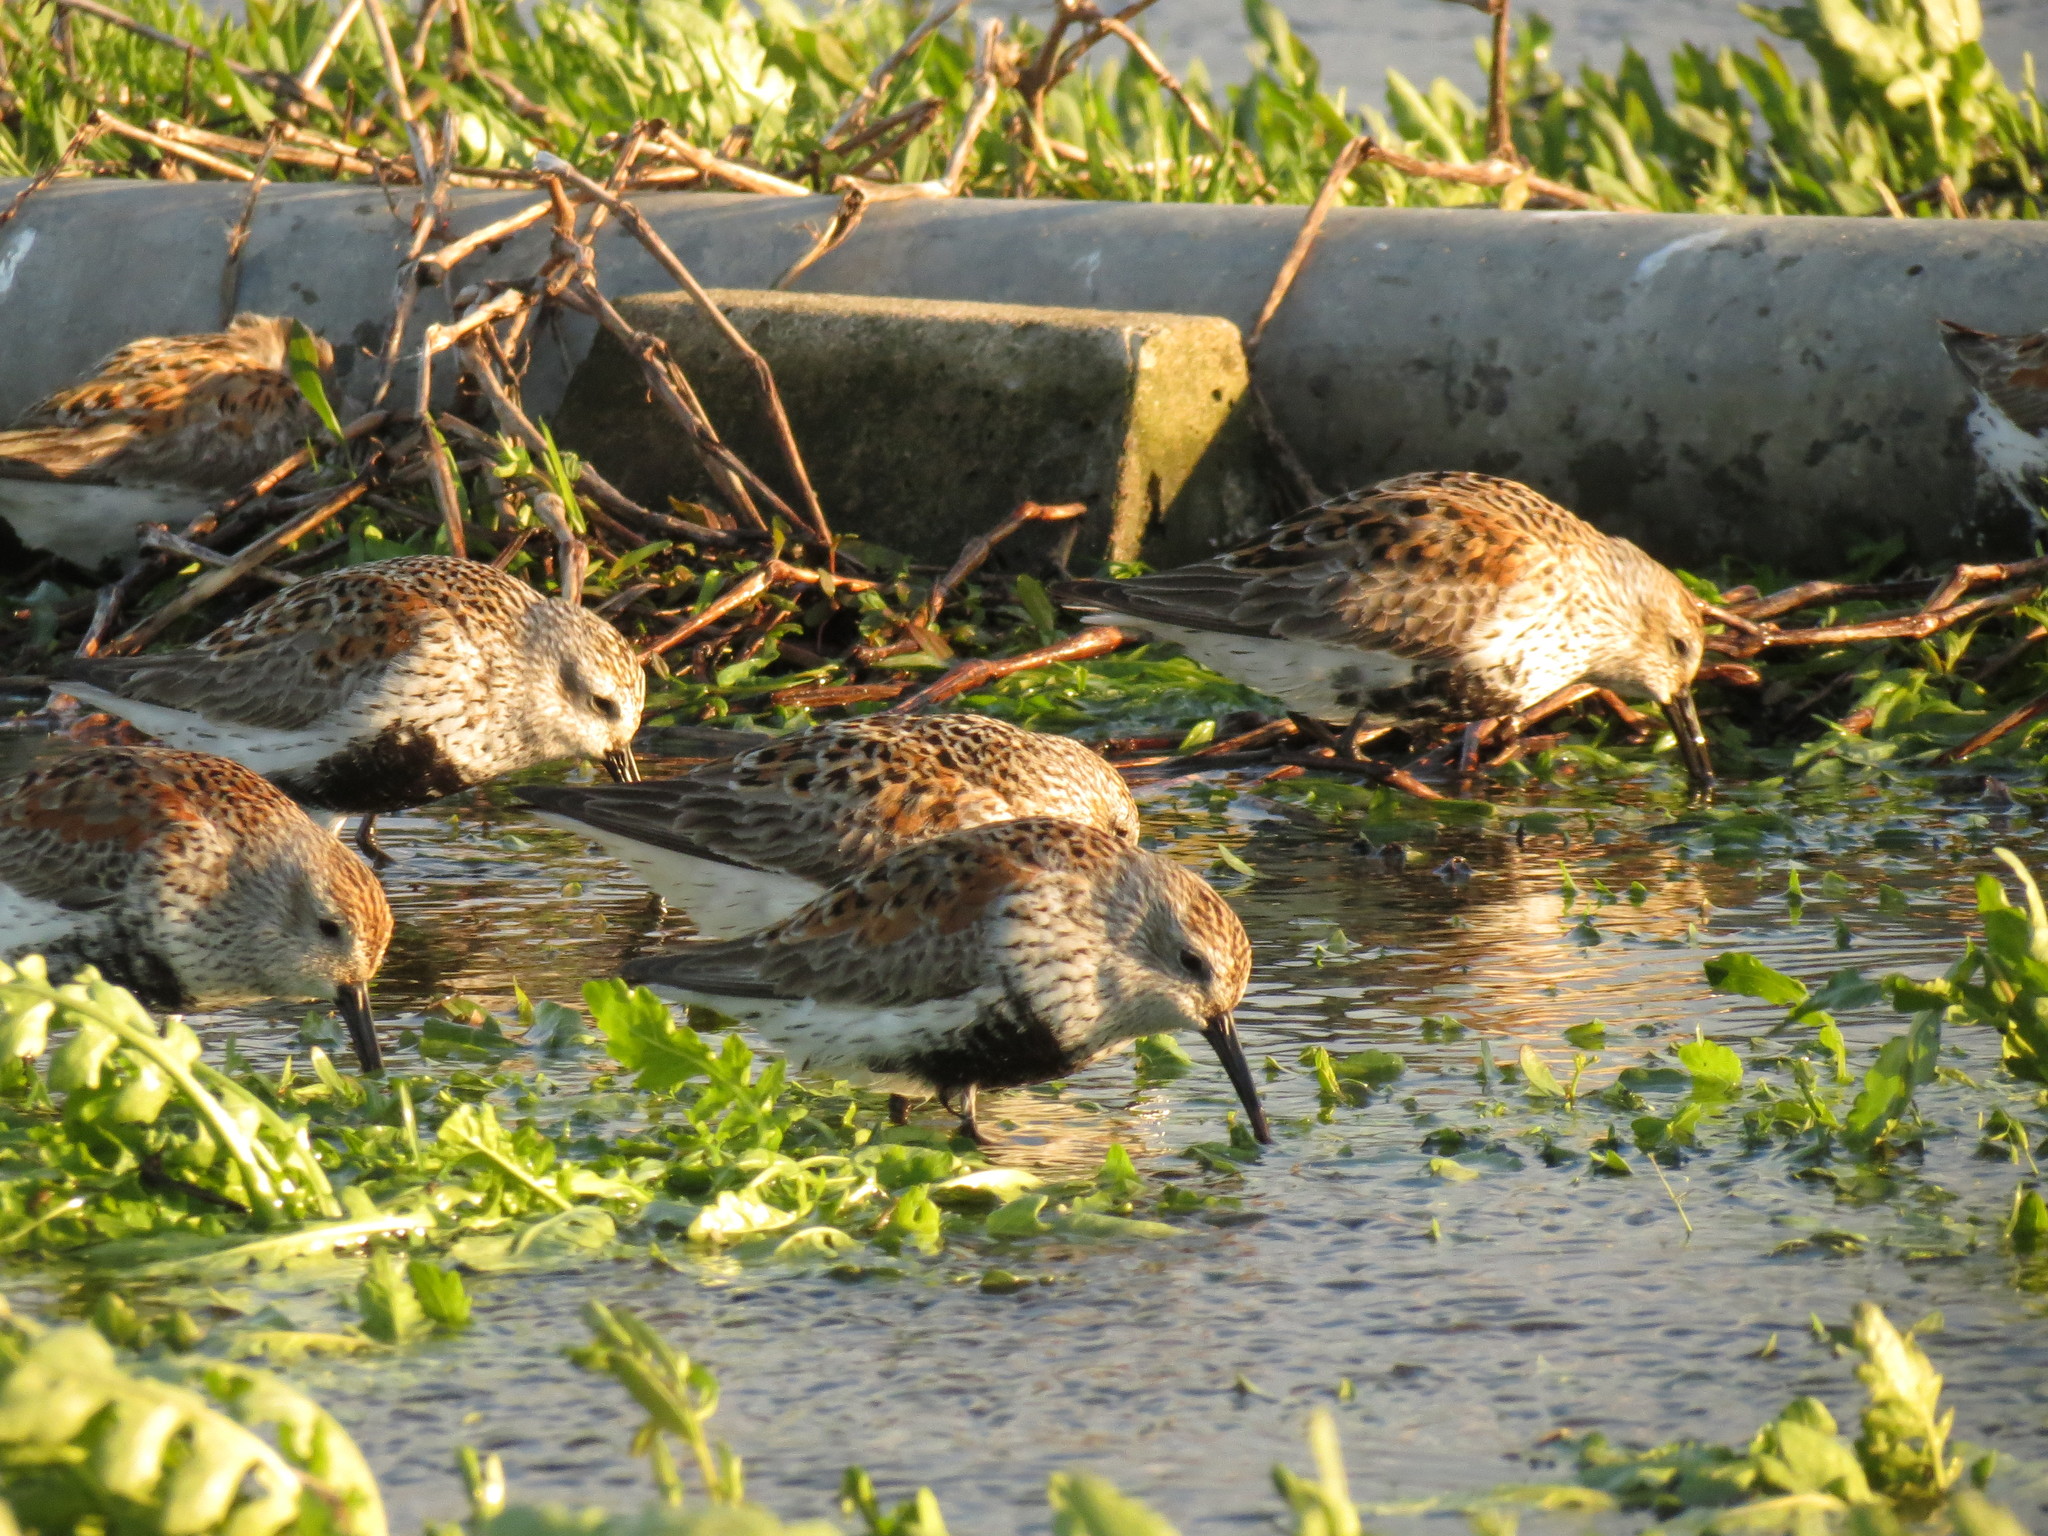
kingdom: Animalia
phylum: Chordata
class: Aves
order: Charadriiformes
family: Scolopacidae
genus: Calidris
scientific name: Calidris alpina
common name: Dunlin
